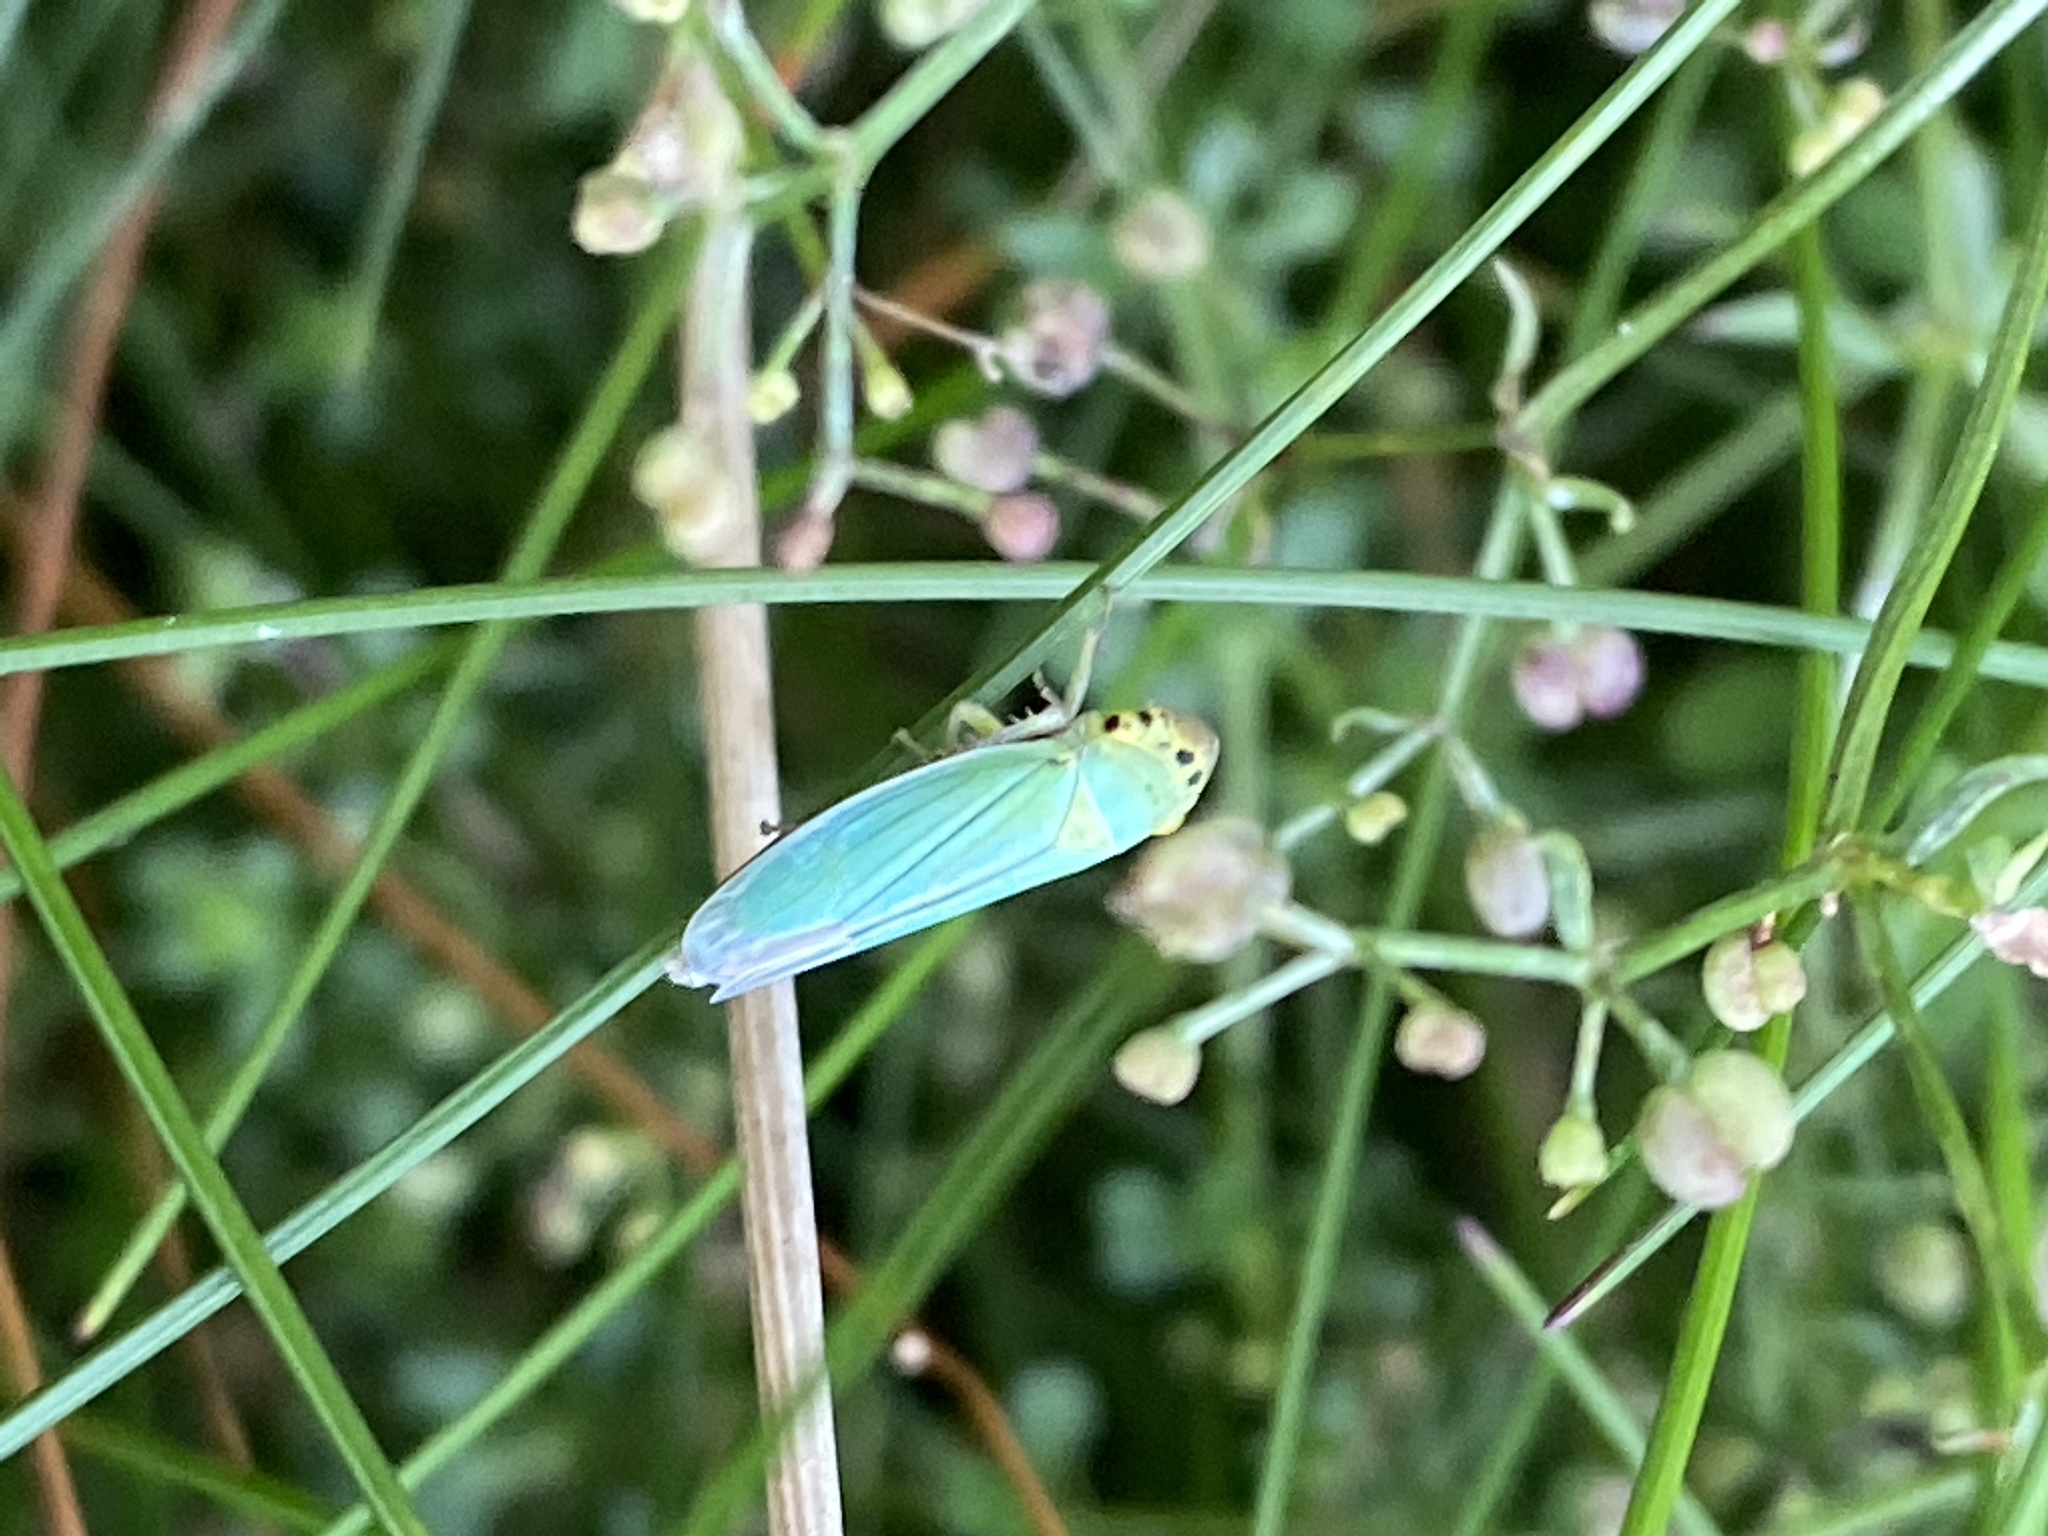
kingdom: Animalia
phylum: Arthropoda
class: Insecta
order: Hemiptera
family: Cicadellidae
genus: Cicadella
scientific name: Cicadella viridis
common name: Leafhopper
